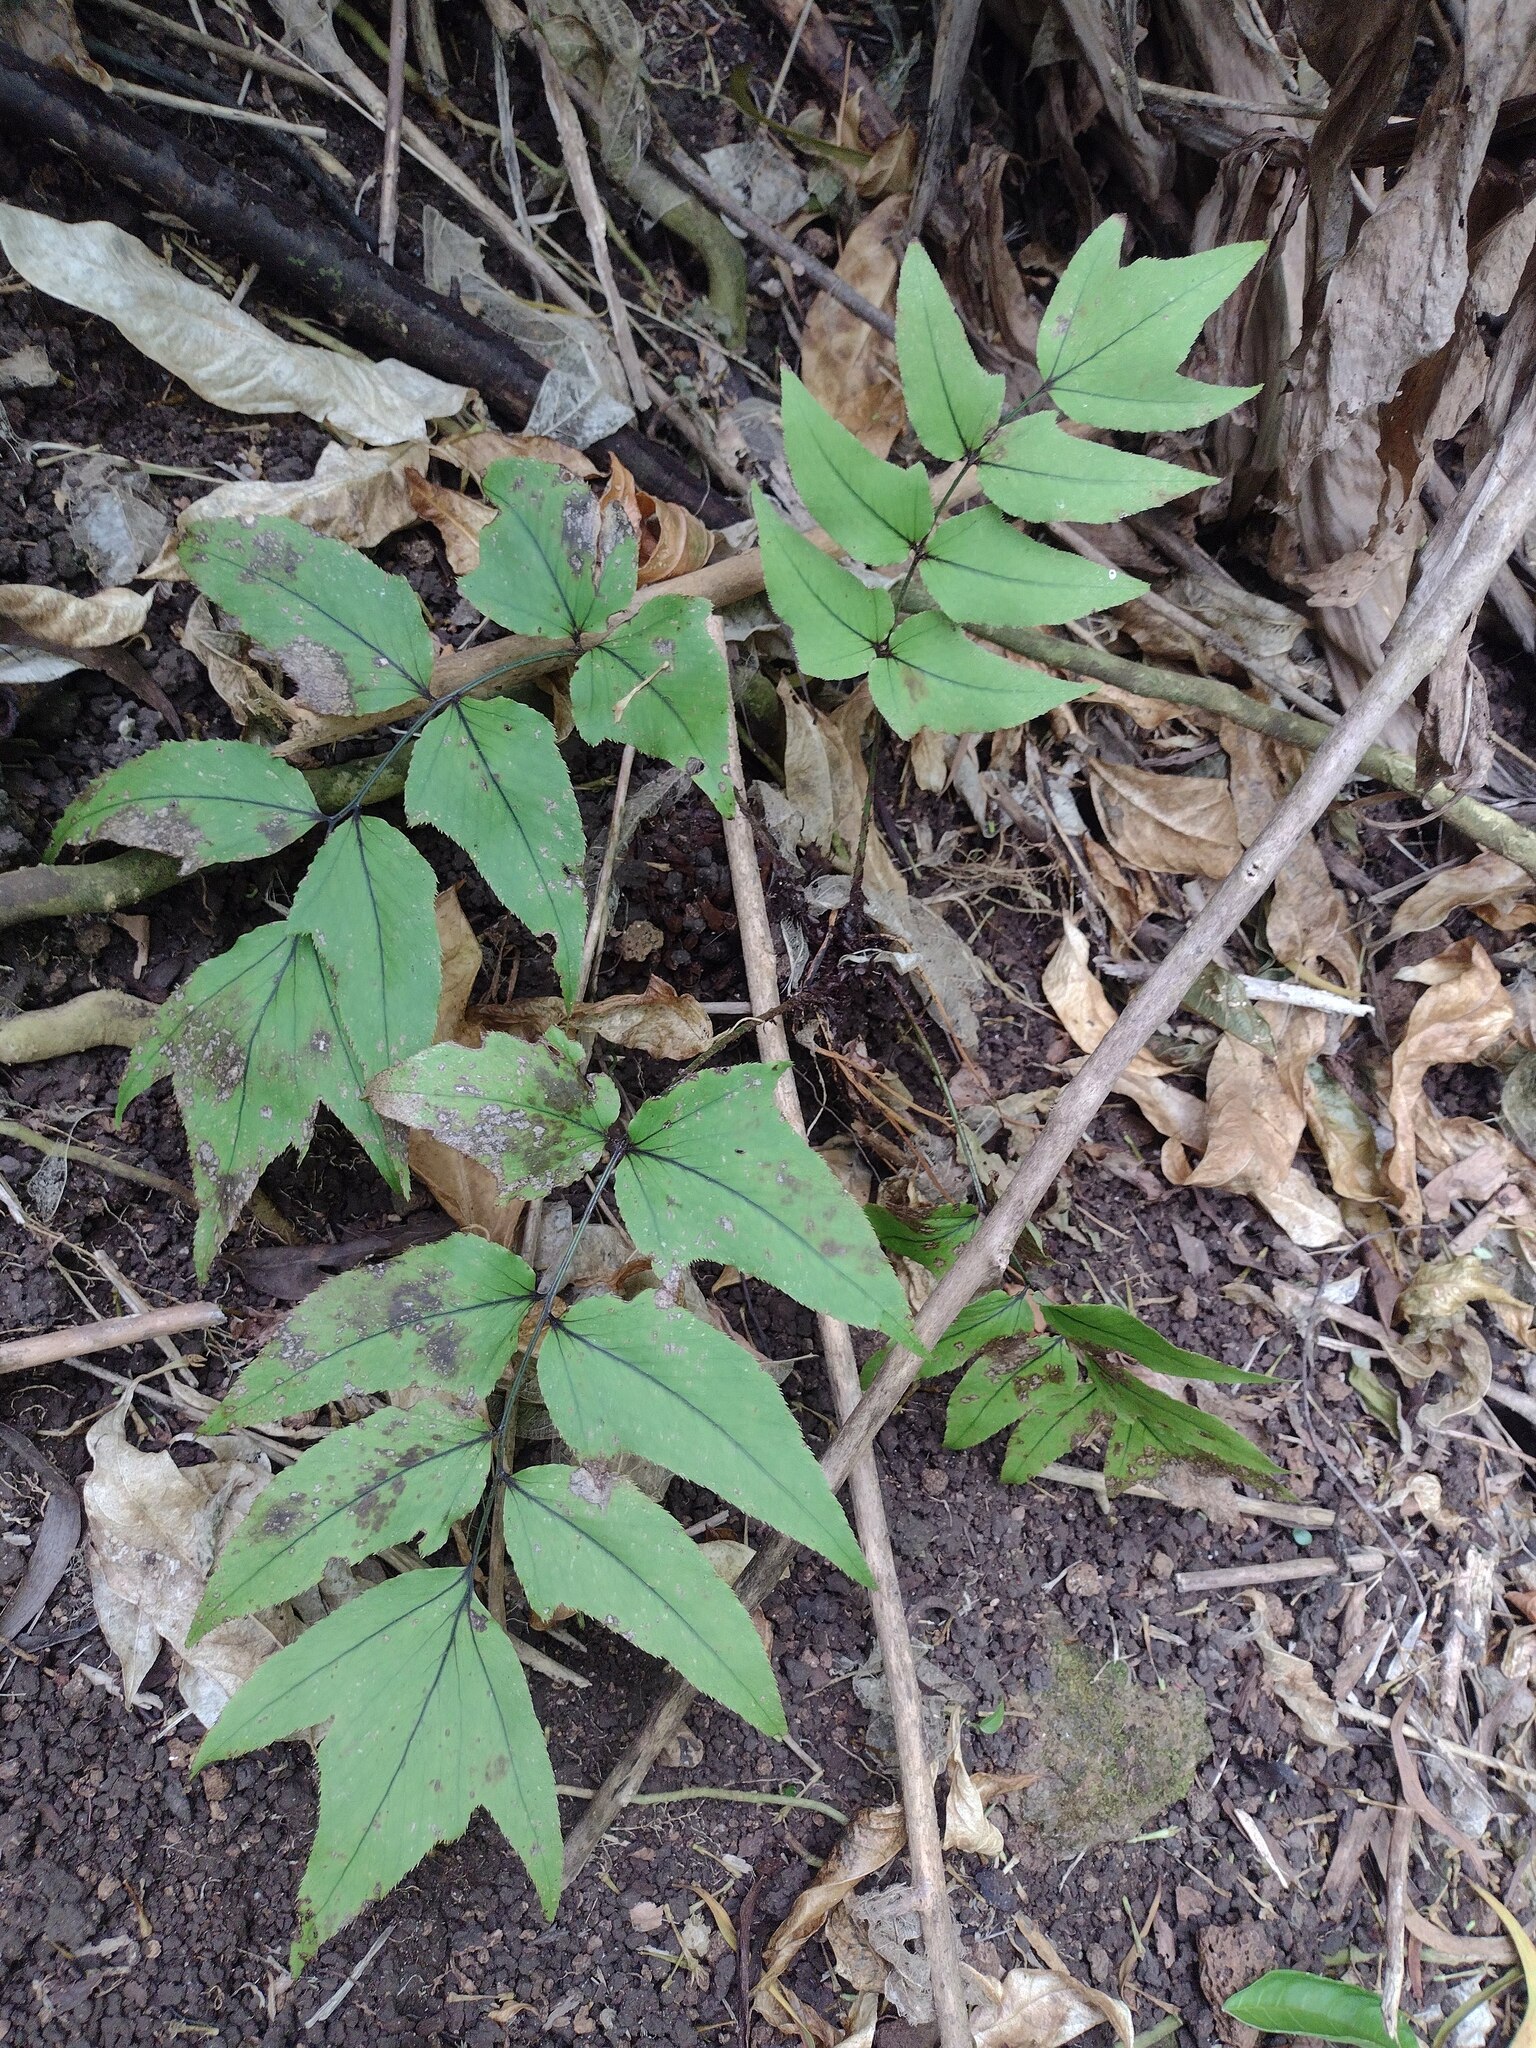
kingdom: Plantae
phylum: Tracheophyta
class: Polypodiopsida
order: Polypodiales
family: Dryopteridaceae
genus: Cyrtomium
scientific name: Cyrtomium caryotideum
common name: Asiatic holly fern
